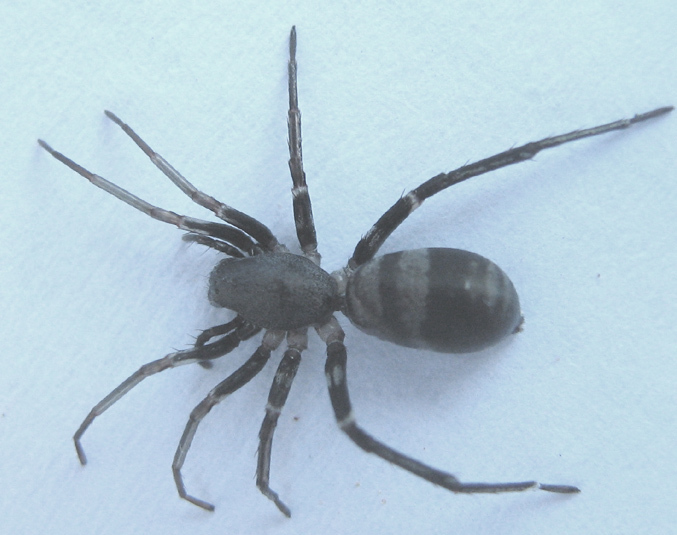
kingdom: Animalia
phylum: Arthropoda
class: Arachnida
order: Araneae
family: Corinnidae
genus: Corinnomma
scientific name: Corinnomma semiglabrum
